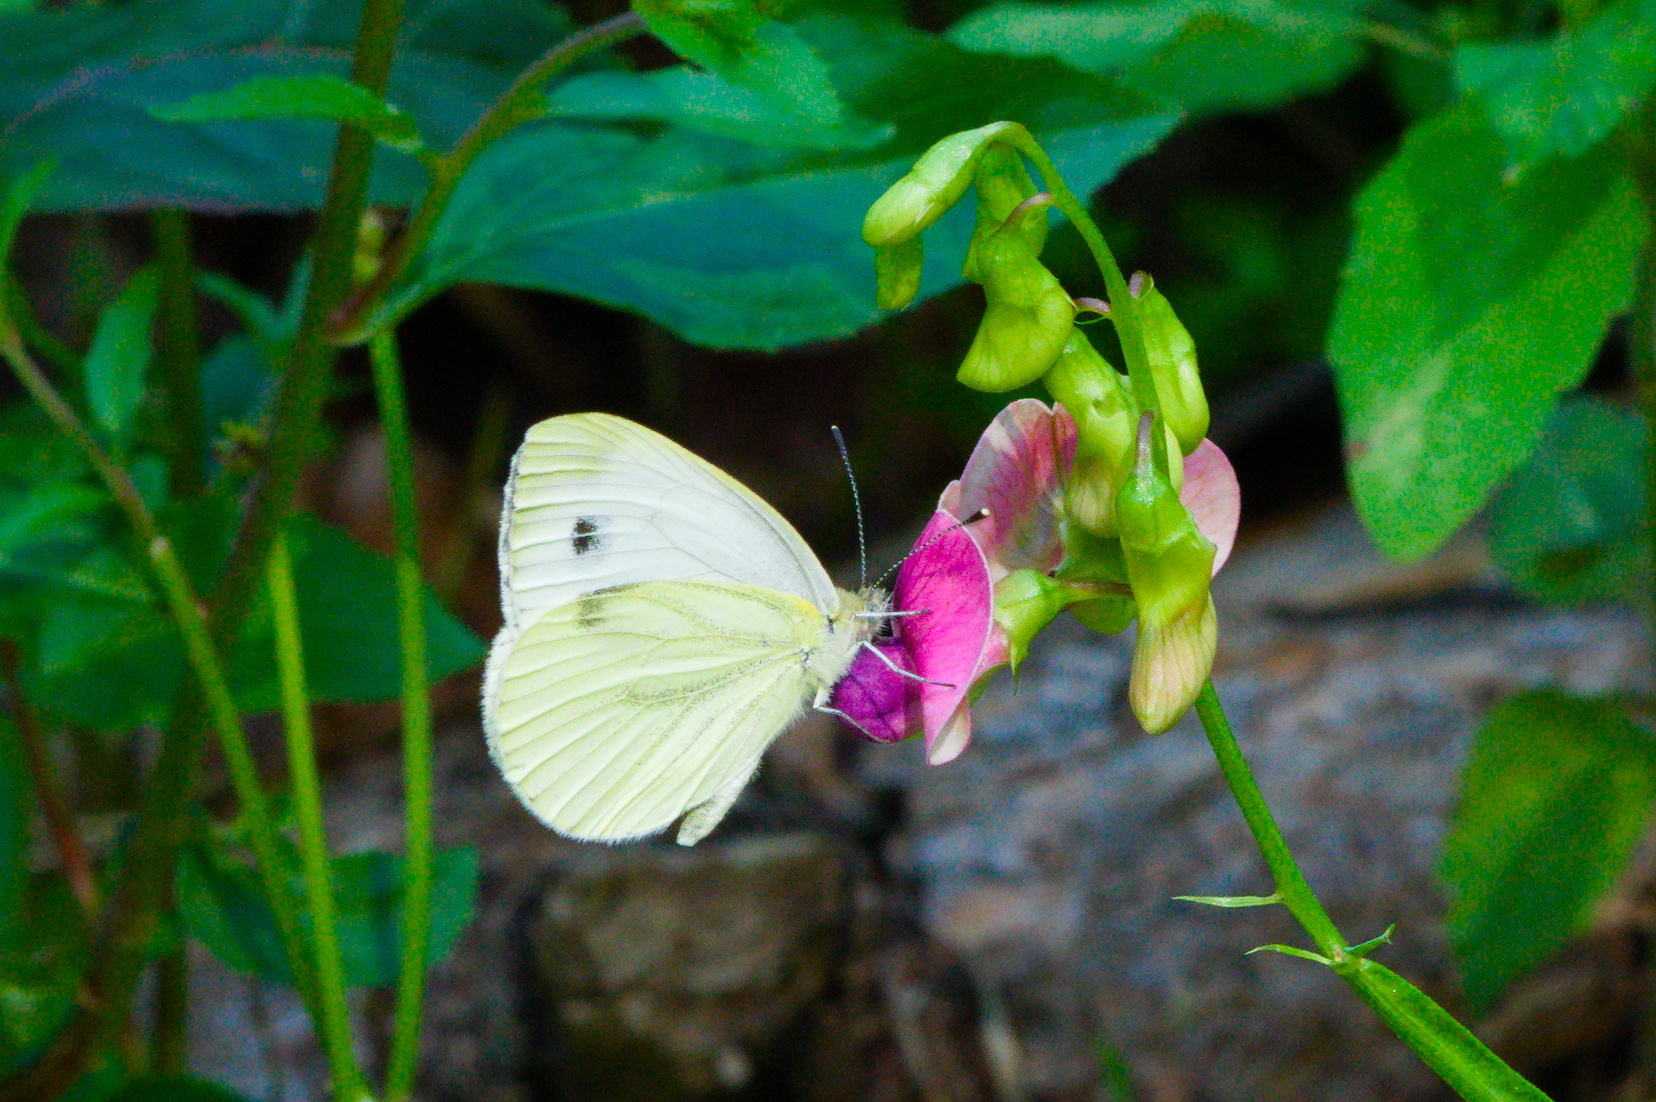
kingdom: Animalia
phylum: Arthropoda
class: Insecta
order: Lepidoptera
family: Pieridae
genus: Pieris
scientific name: Pieris napi
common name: Green-veined white
